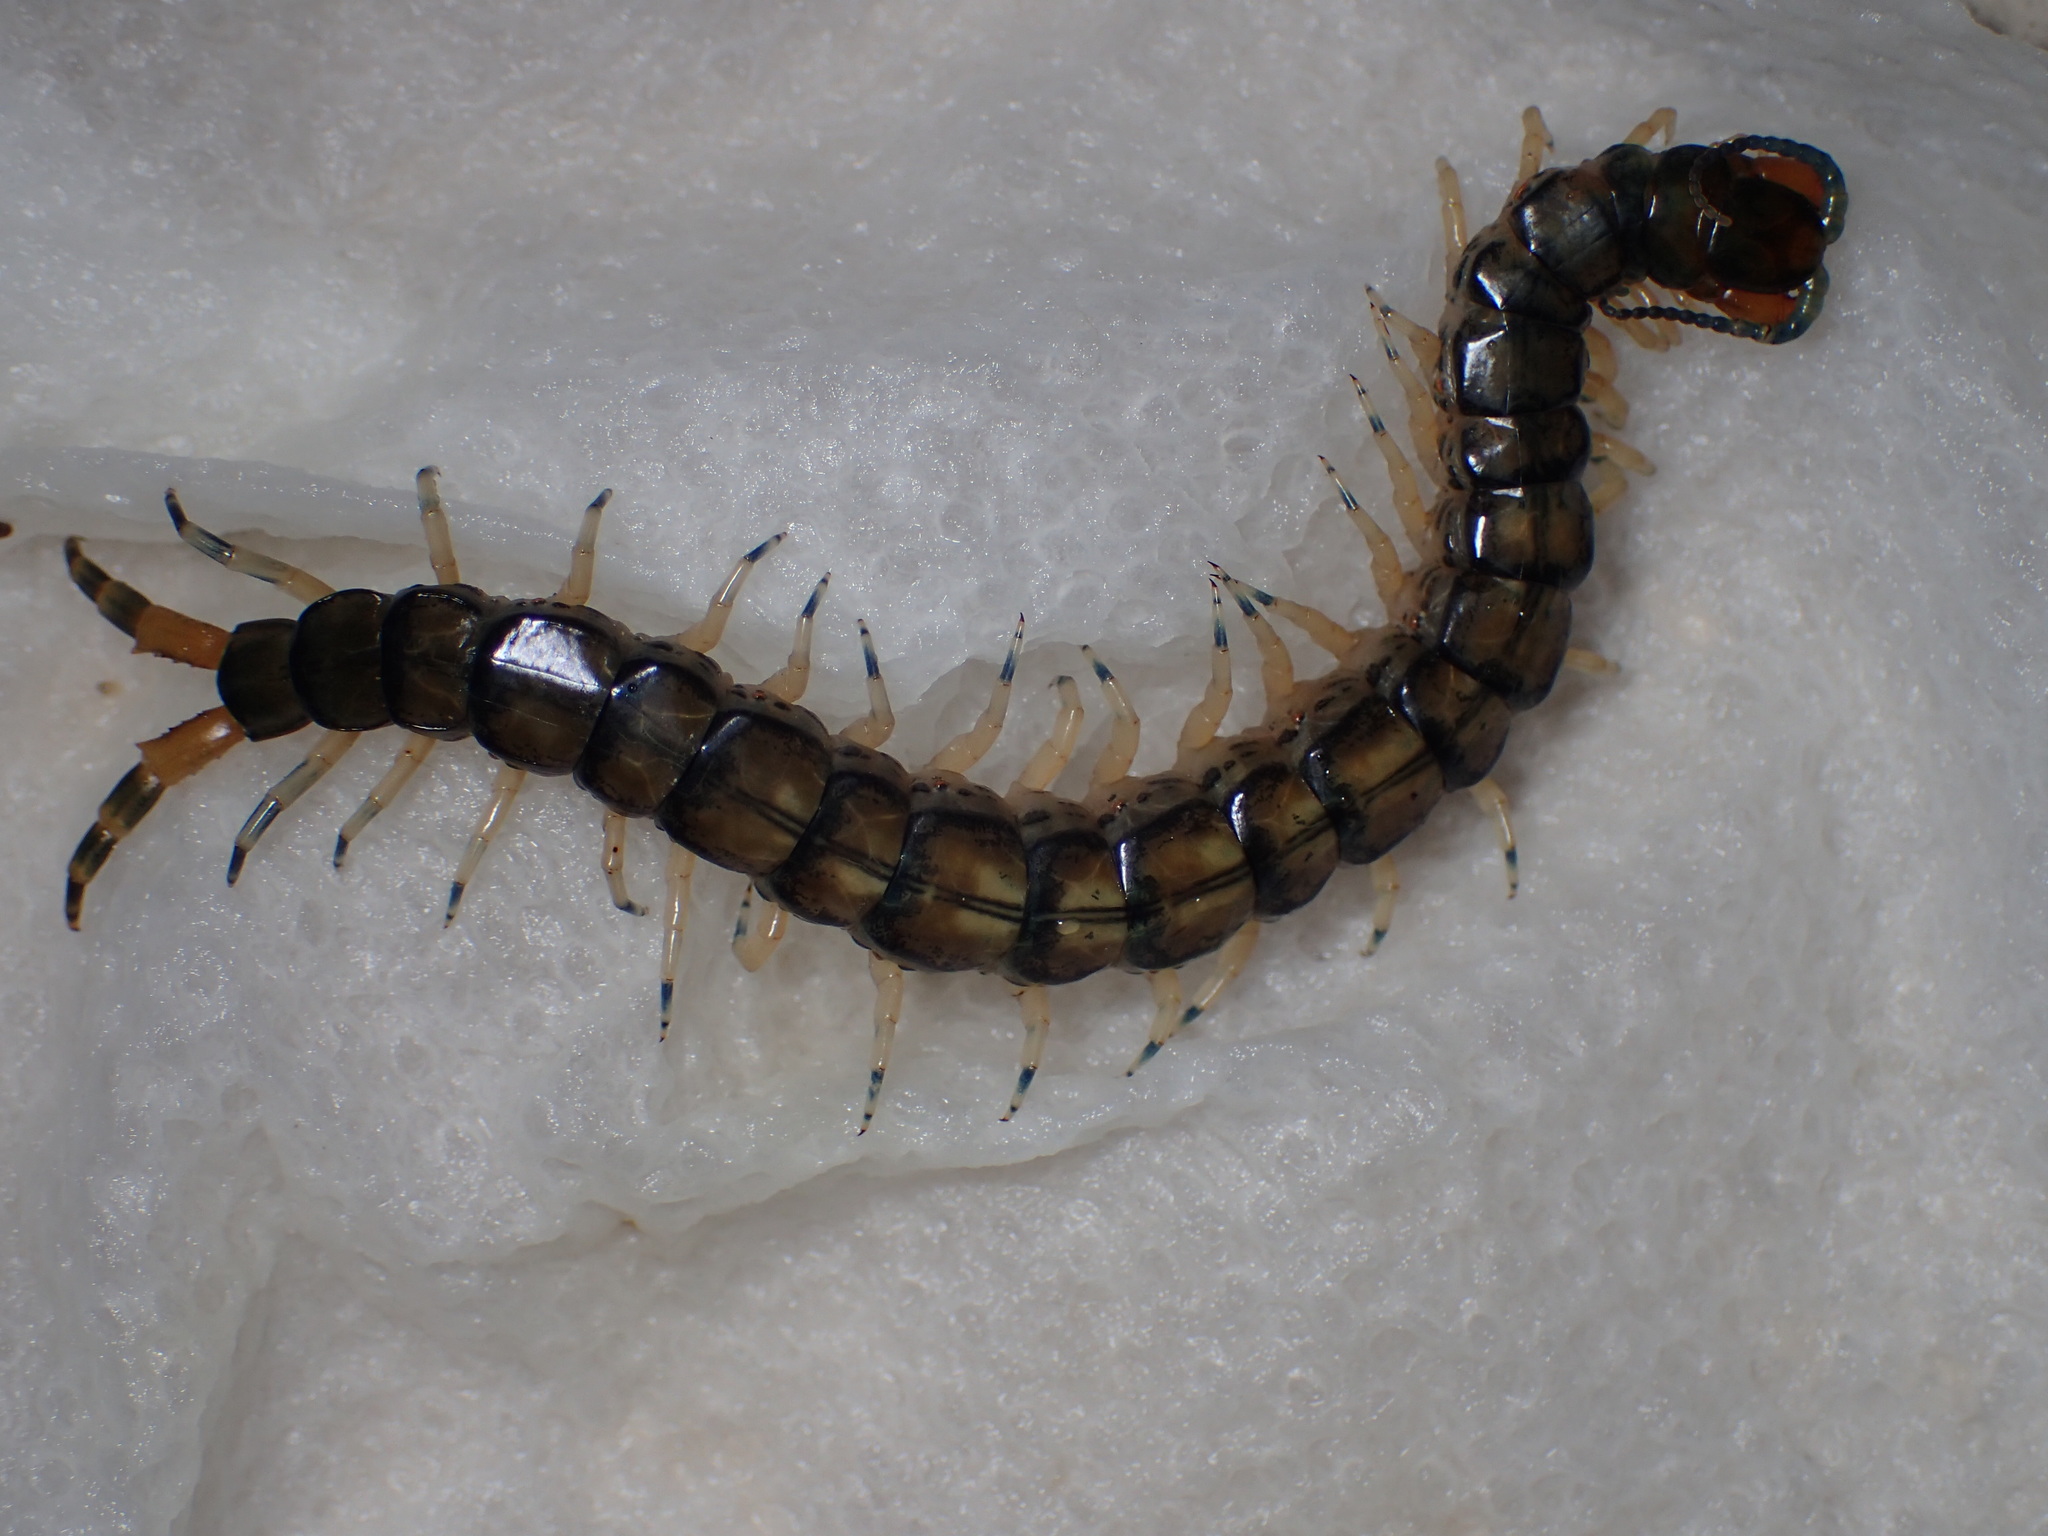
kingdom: Animalia
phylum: Arthropoda
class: Chilopoda
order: Scolopendromorpha
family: Scolopendridae
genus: Hemiscolopendra
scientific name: Hemiscolopendra marginata
